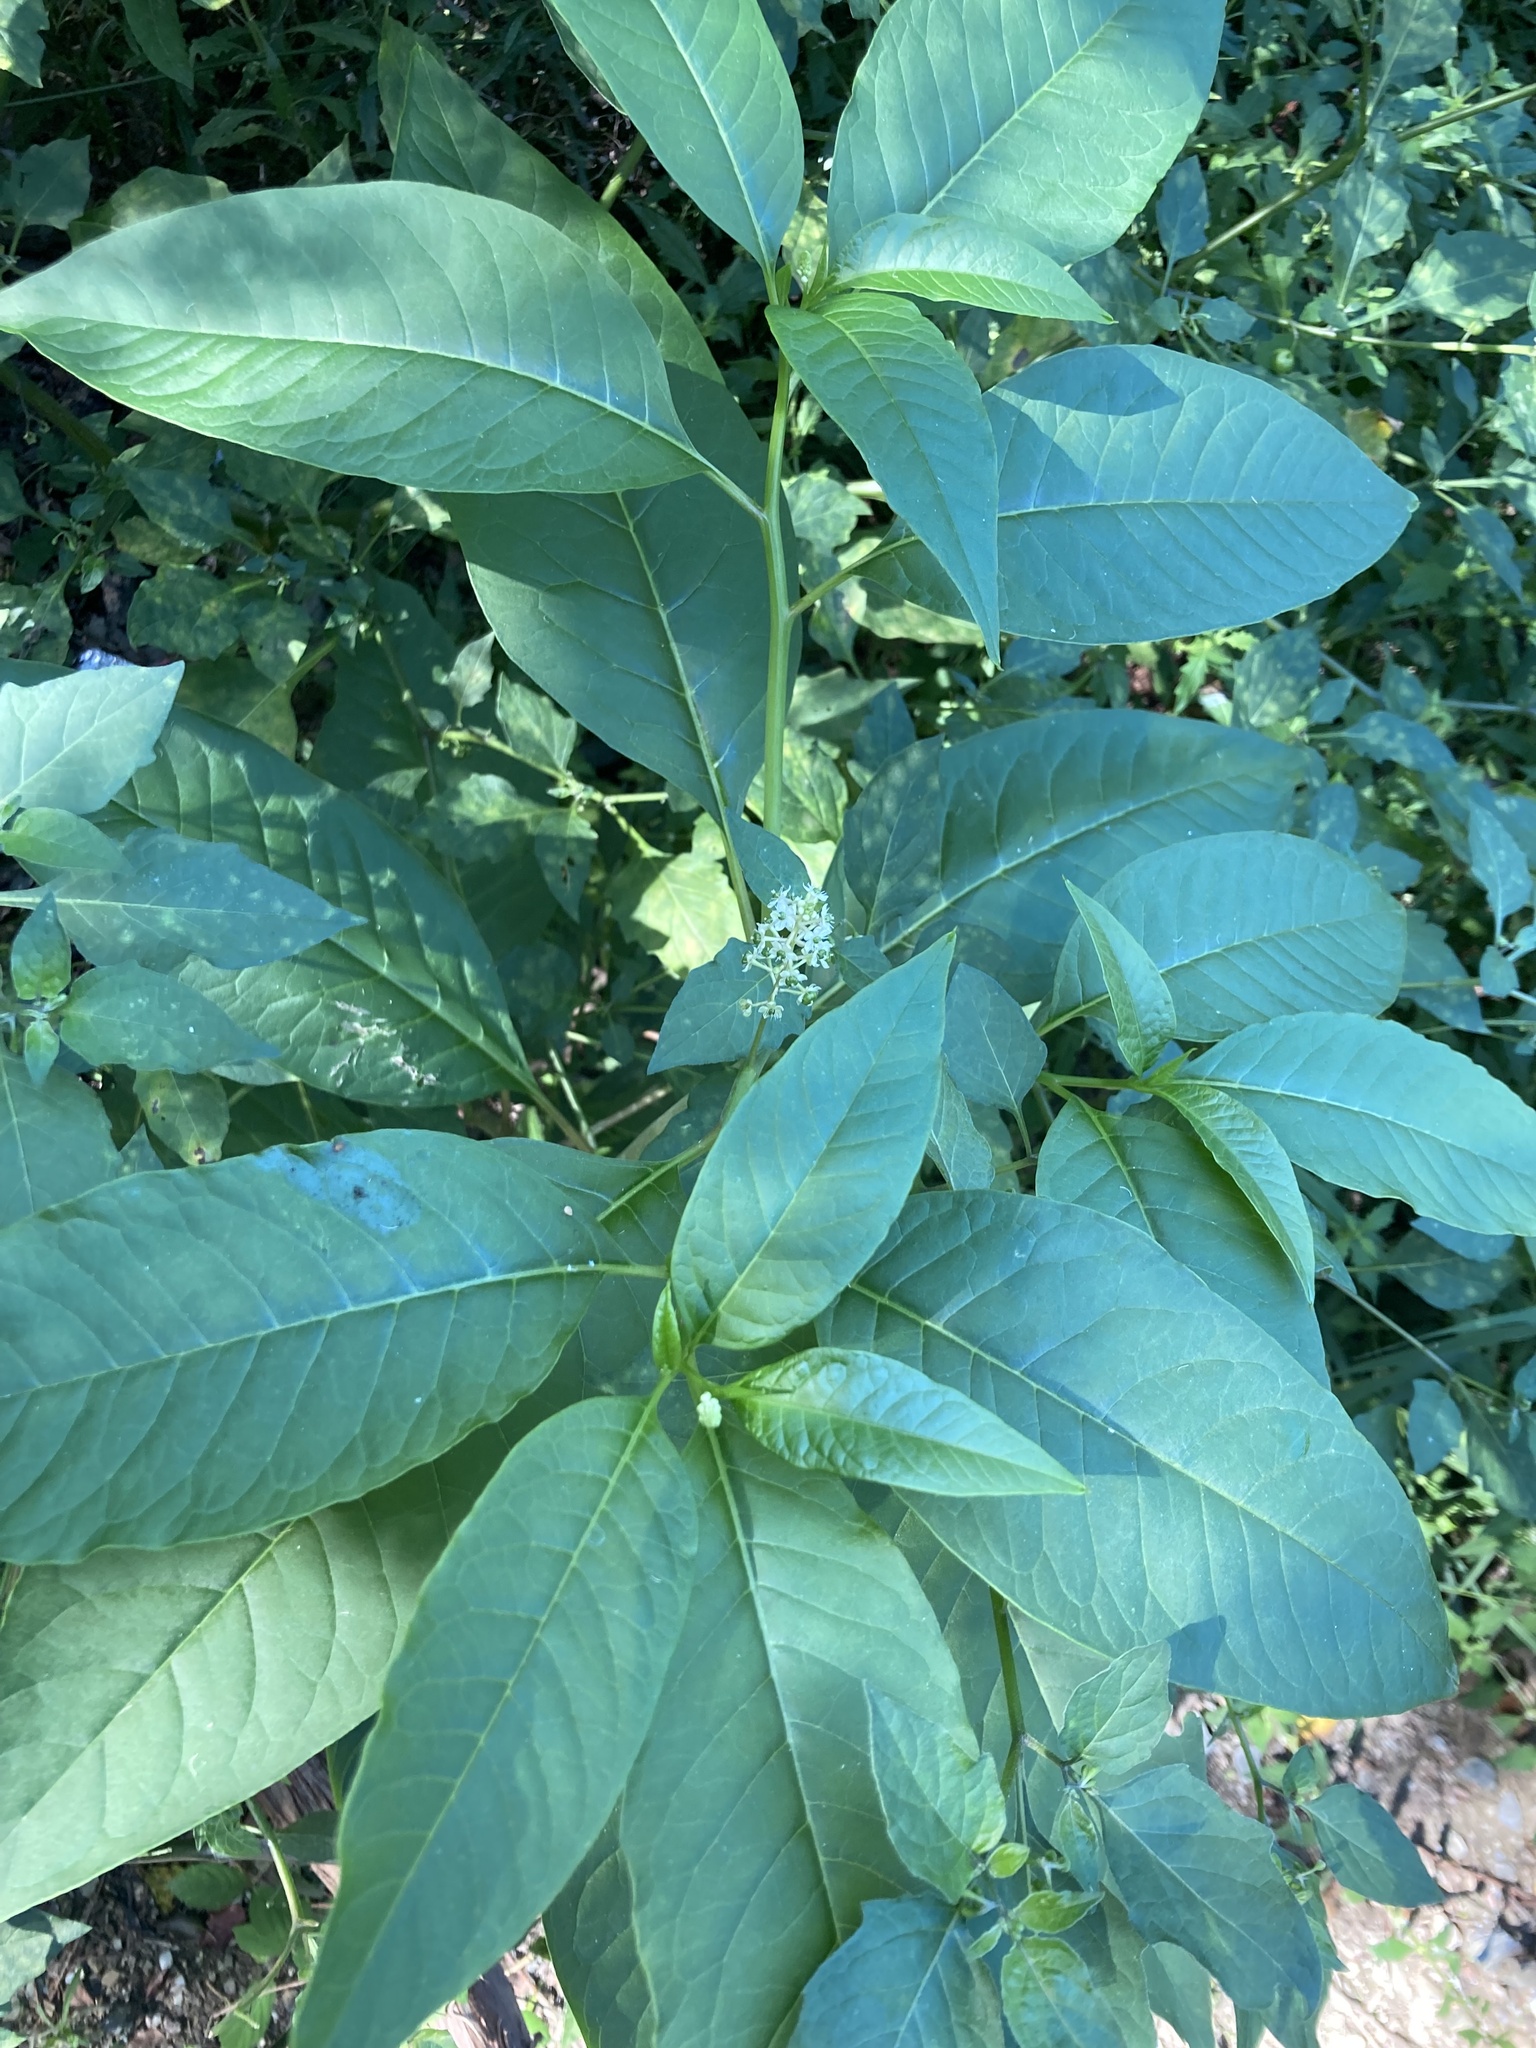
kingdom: Plantae
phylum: Tracheophyta
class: Magnoliopsida
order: Caryophyllales
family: Phytolaccaceae
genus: Phytolacca
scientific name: Phytolacca americana
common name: American pokeweed
